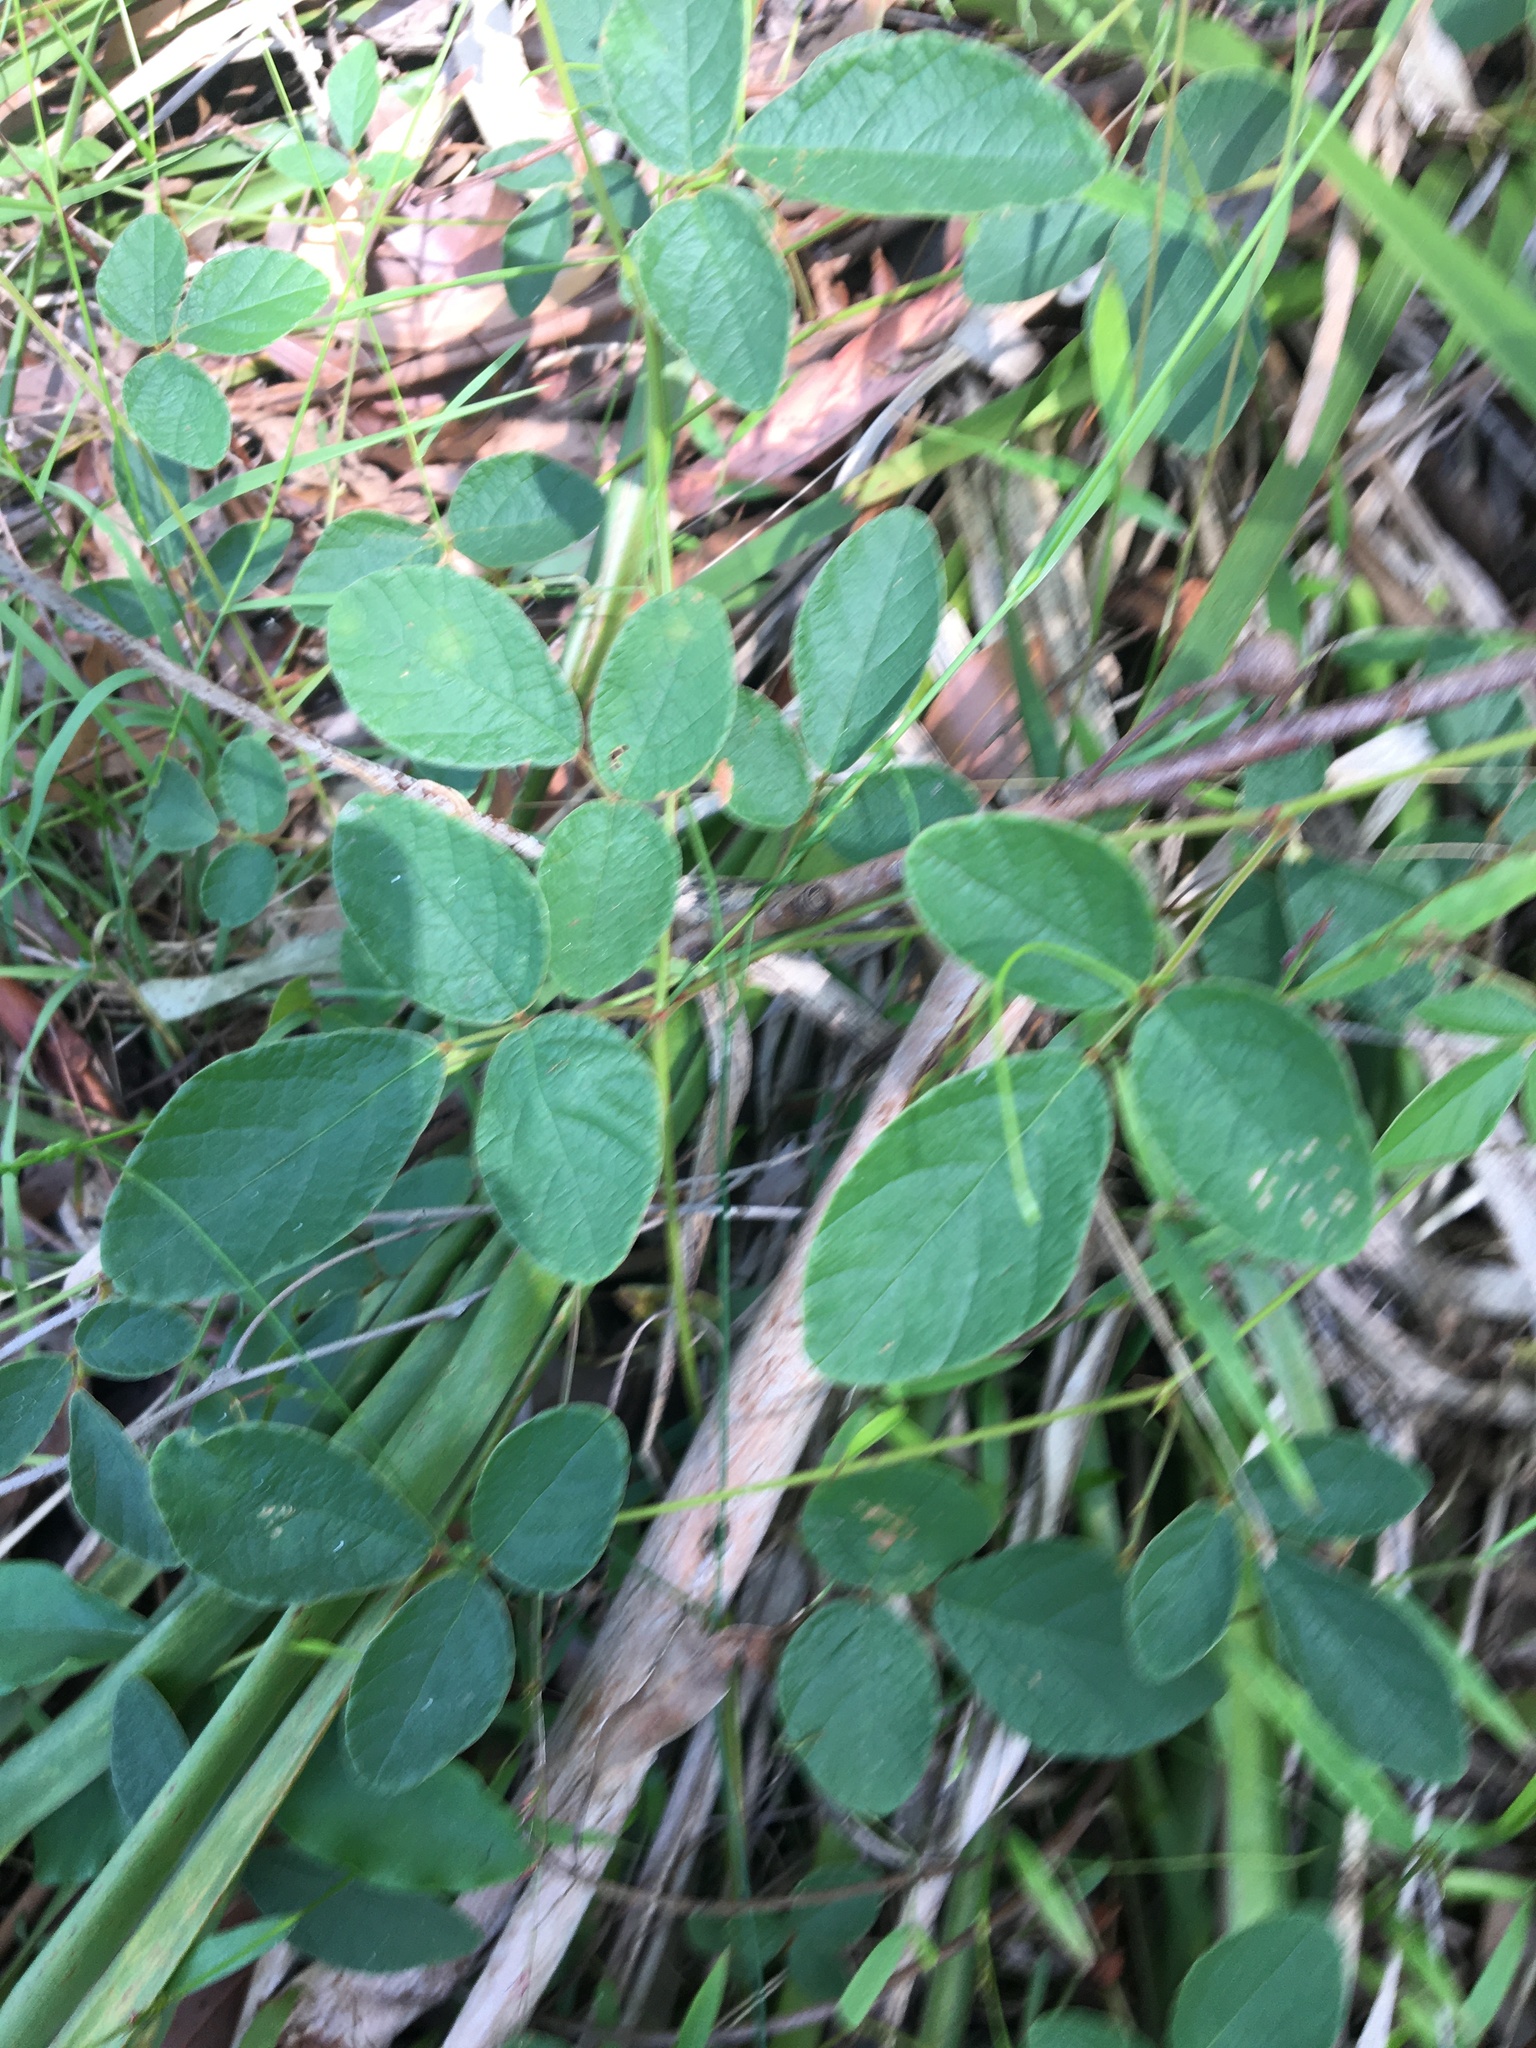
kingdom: Plantae
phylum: Tracheophyta
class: Magnoliopsida
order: Fabales
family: Fabaceae
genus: Maekawaea
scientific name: Maekawaea rhytidophylla
